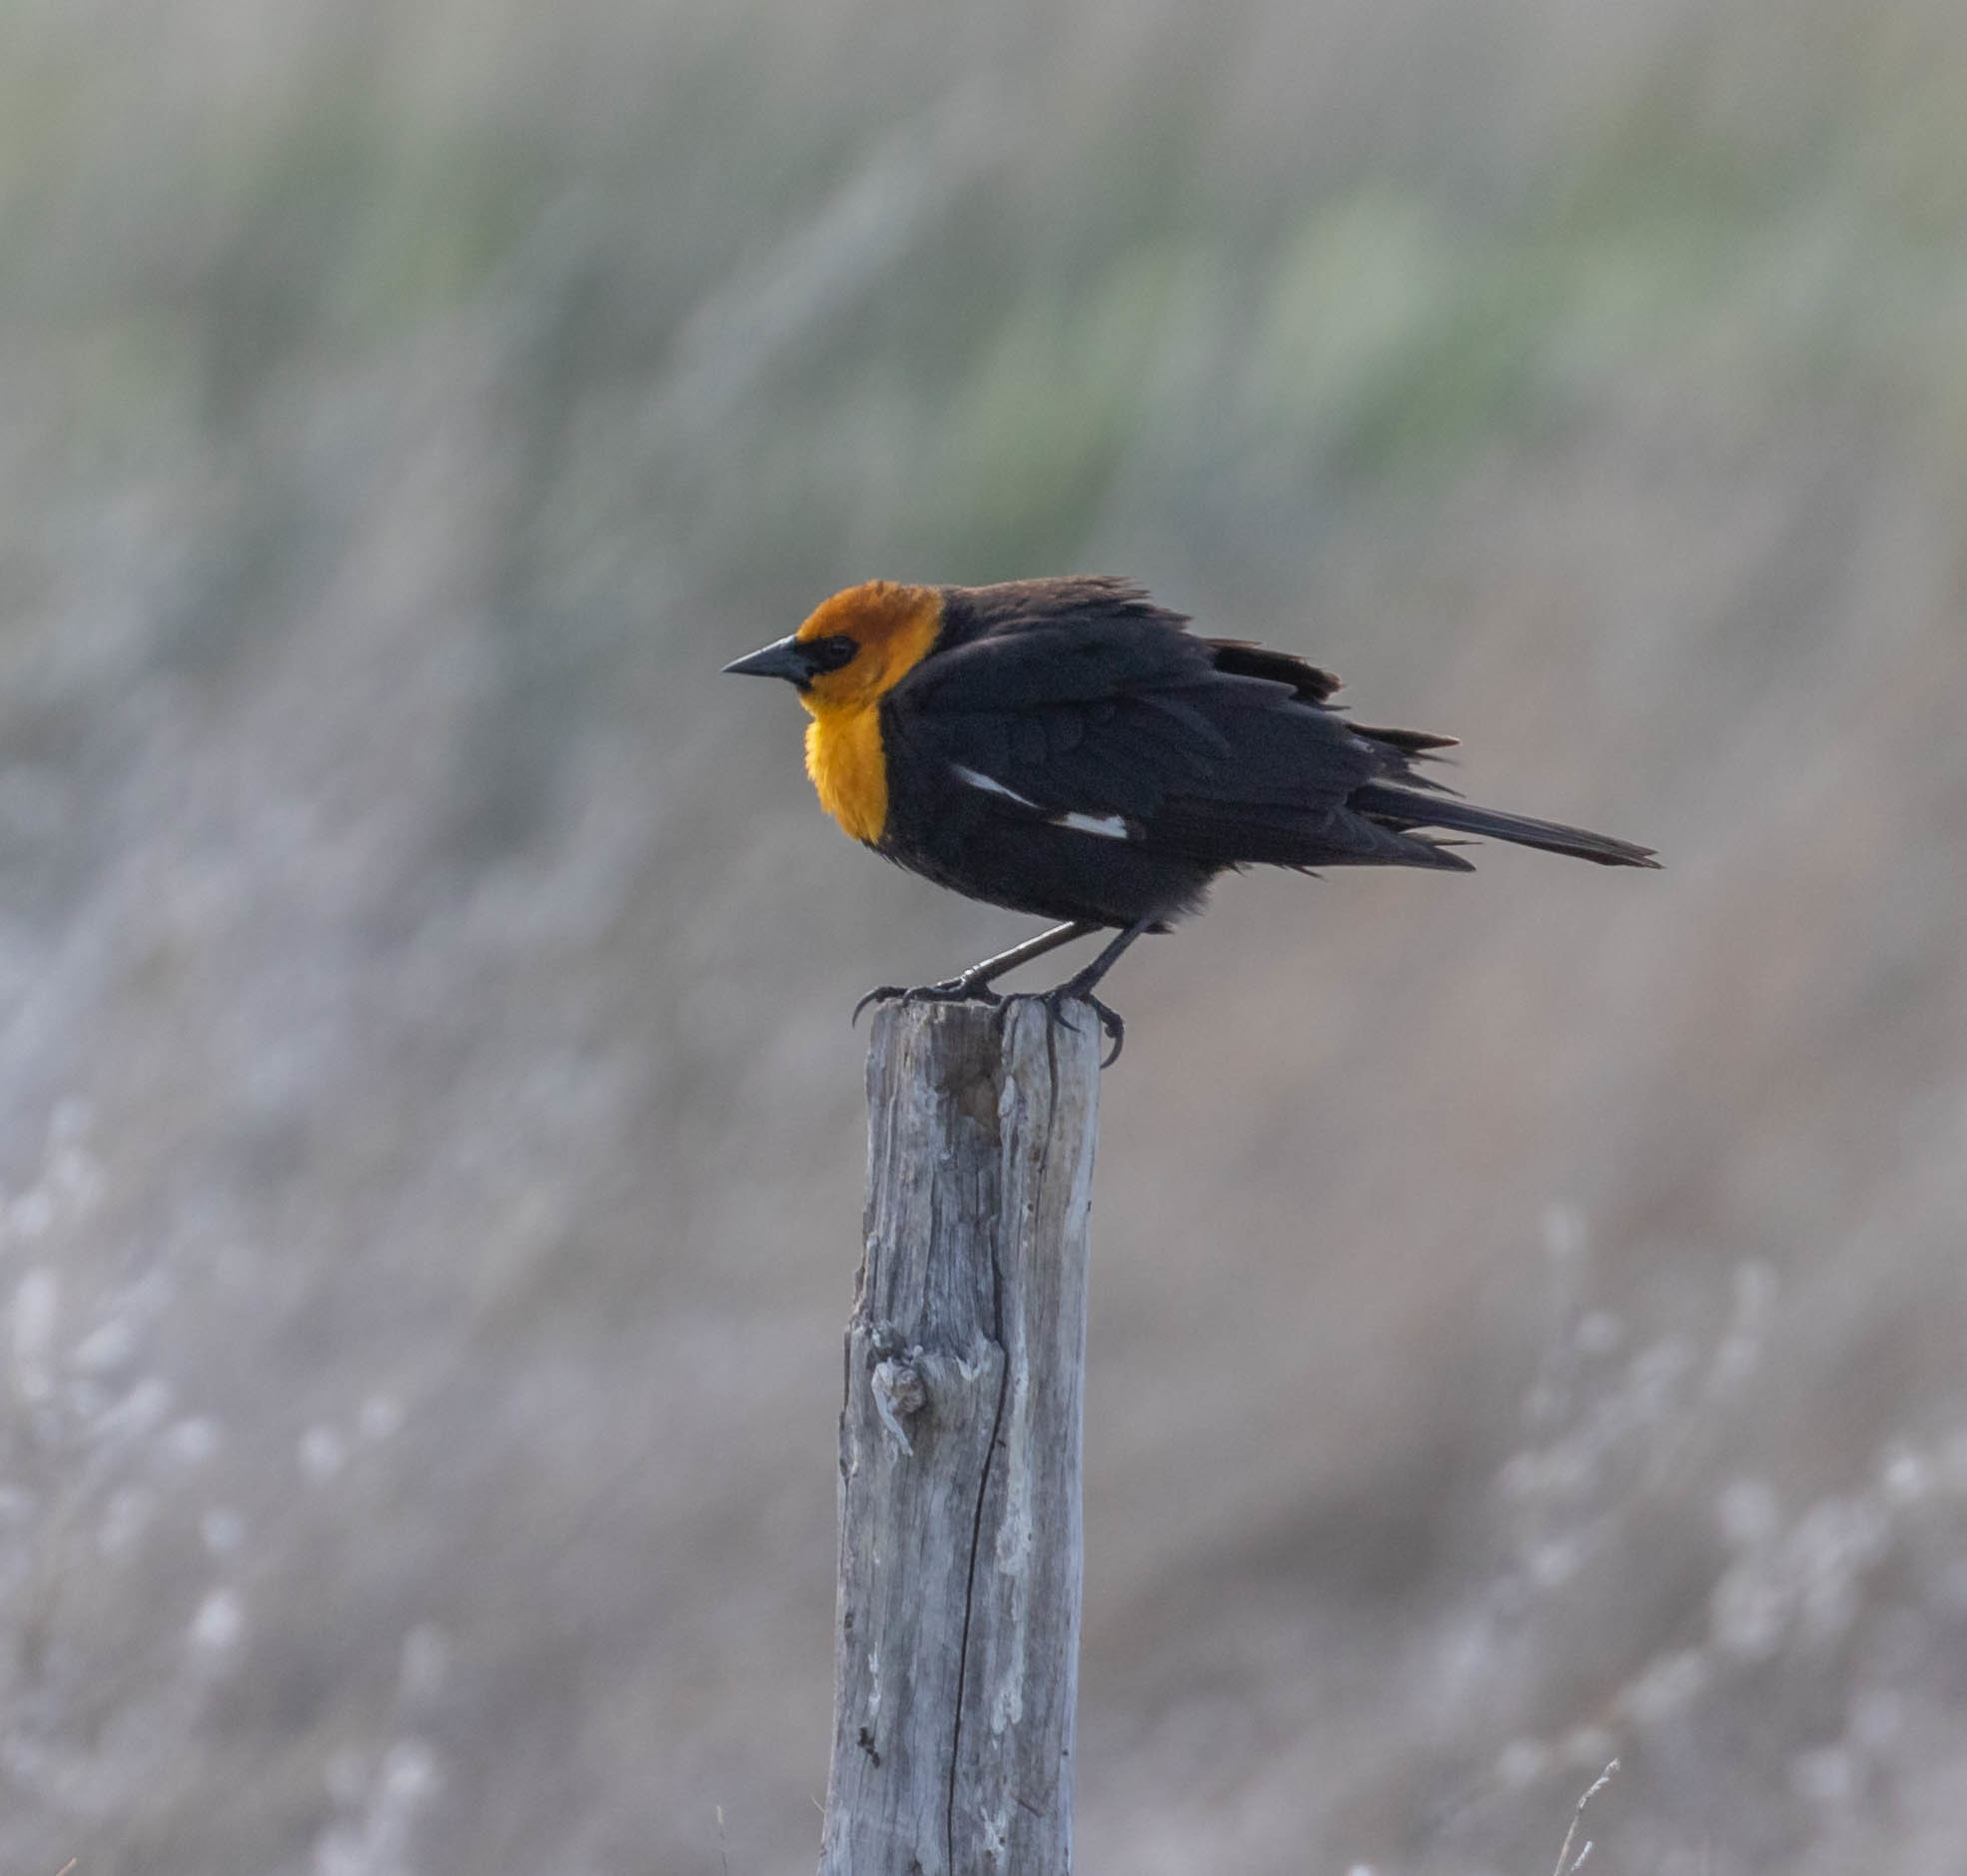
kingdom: Animalia
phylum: Chordata
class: Aves
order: Passeriformes
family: Icteridae
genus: Xanthocephalus
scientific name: Xanthocephalus xanthocephalus
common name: Yellow-headed blackbird
